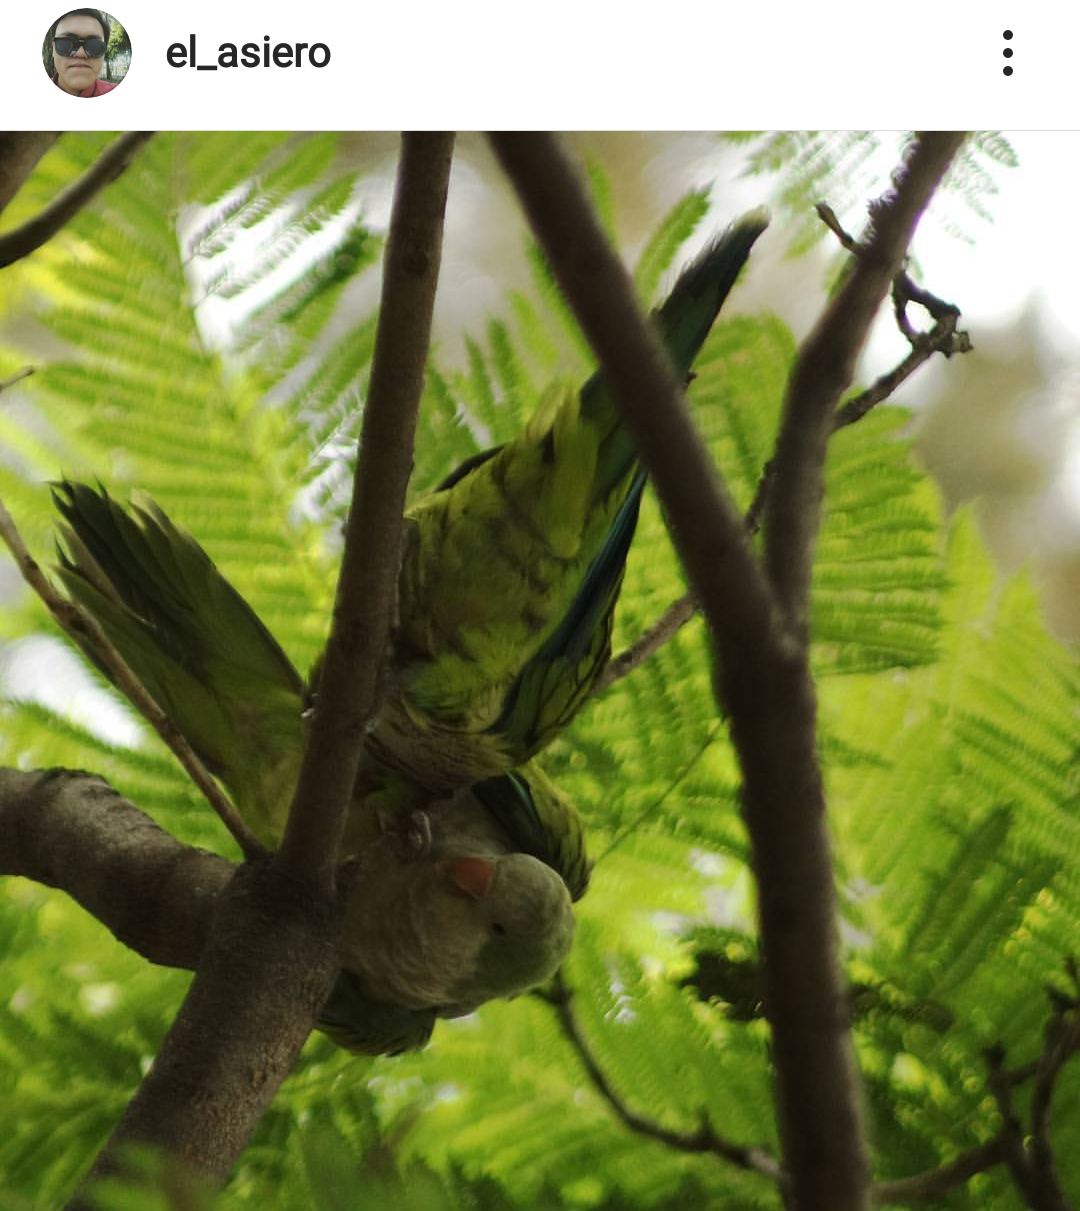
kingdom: Animalia
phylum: Chordata
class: Aves
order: Psittaciformes
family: Psittacidae
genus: Myiopsitta
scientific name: Myiopsitta monachus
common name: Monk parakeet
